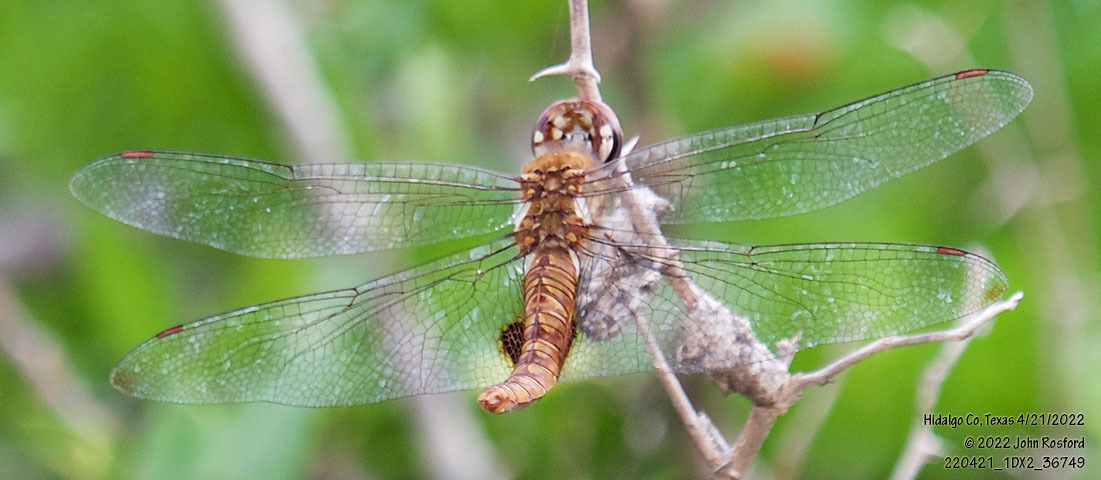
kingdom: Animalia
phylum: Arthropoda
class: Insecta
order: Odonata
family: Libellulidae
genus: Pantala
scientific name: Pantala hymenaea
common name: Spot-winged glider
